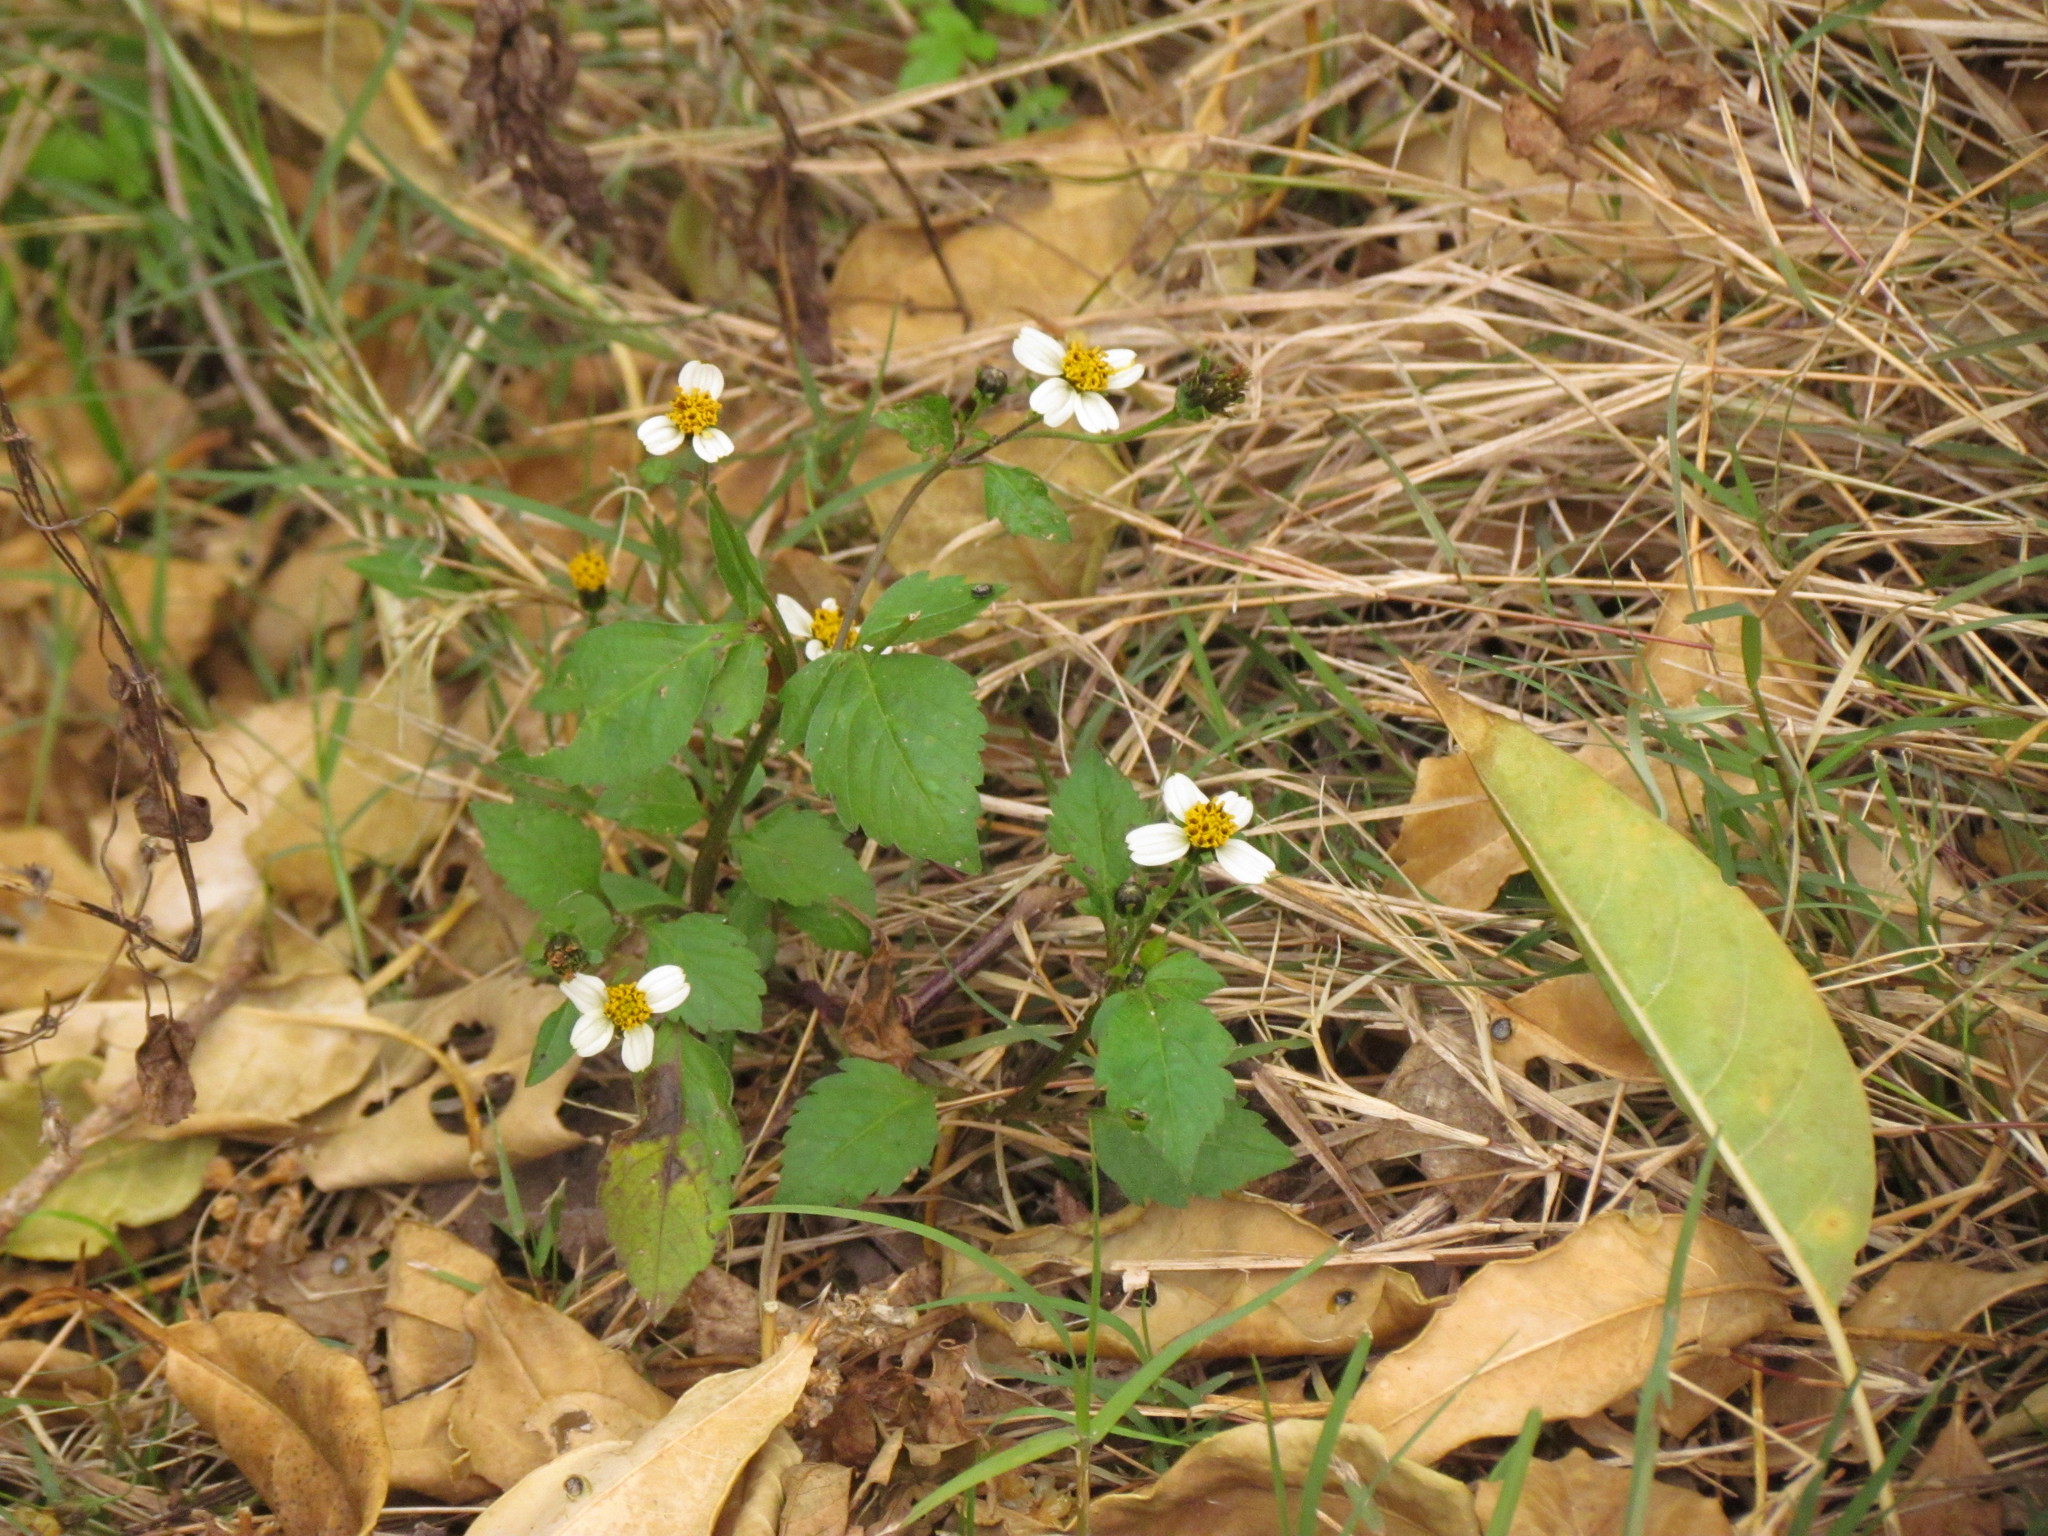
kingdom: Plantae
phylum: Tracheophyta
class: Magnoliopsida
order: Asterales
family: Asteraceae
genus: Bidens
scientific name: Bidens pilosa
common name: Black-jack
